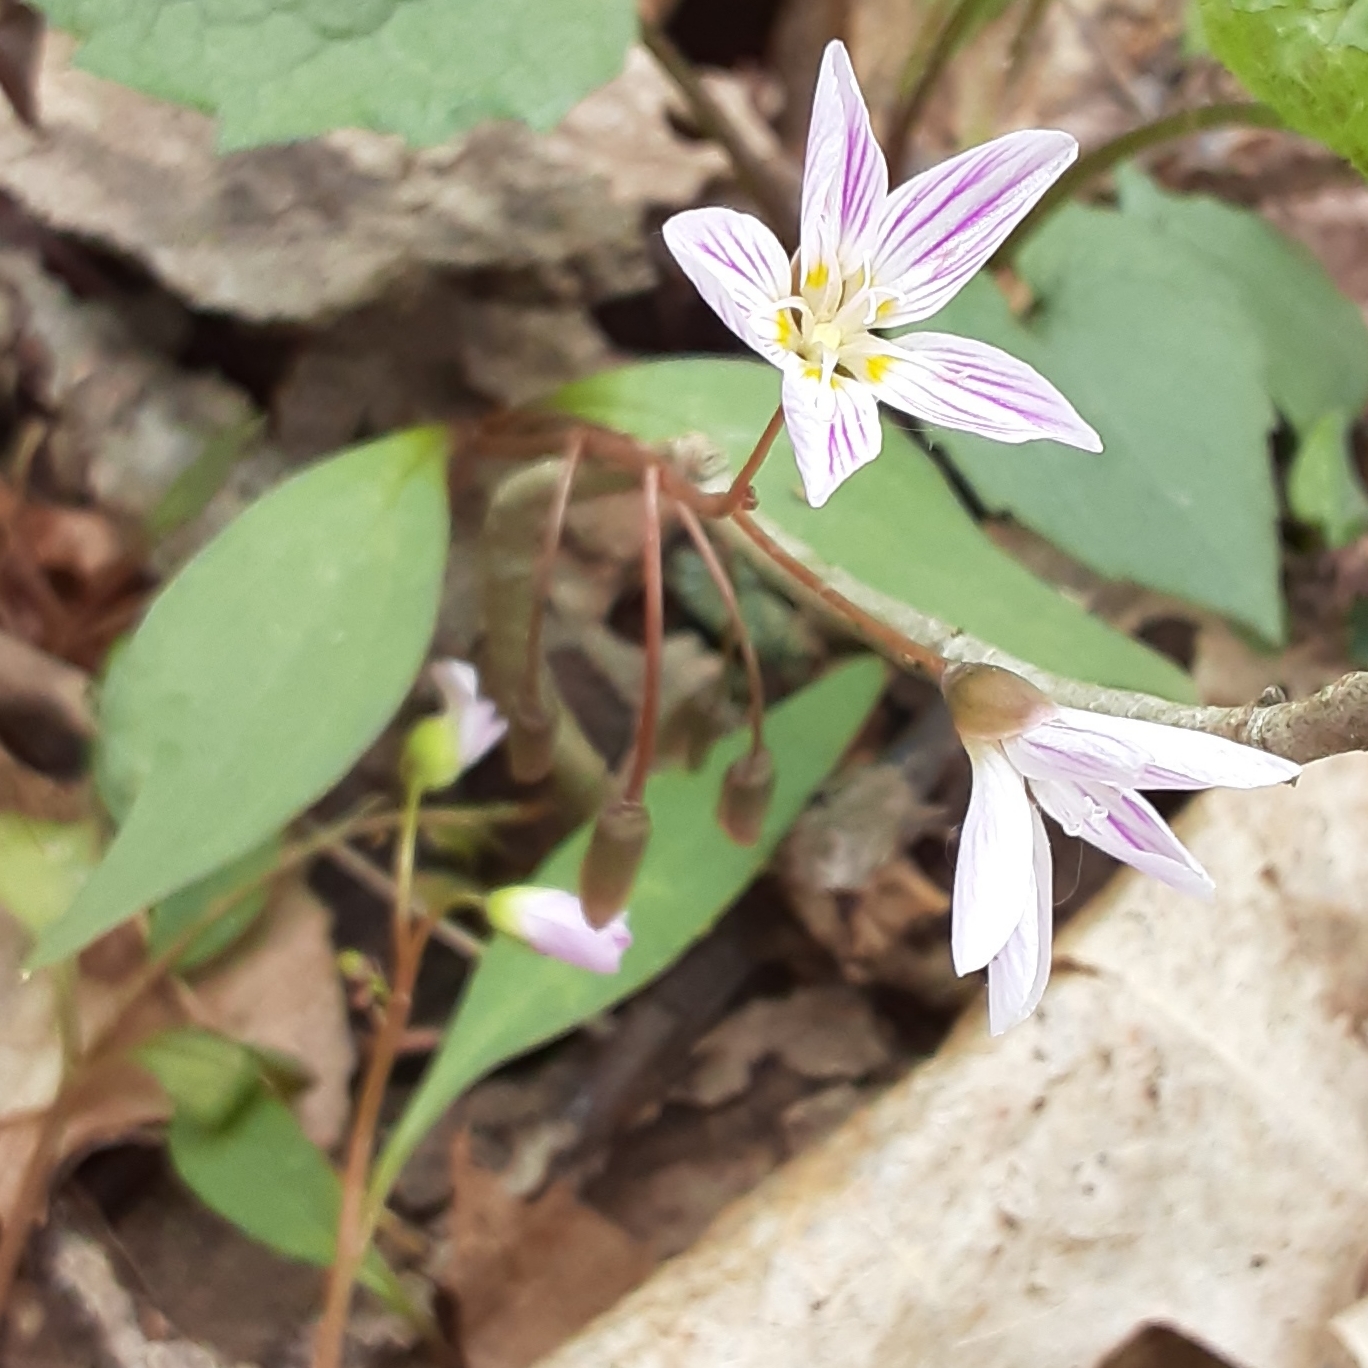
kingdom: Plantae
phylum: Tracheophyta
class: Magnoliopsida
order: Caryophyllales
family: Montiaceae
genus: Claytonia
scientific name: Claytonia caroliniana
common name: Carolina spring beauty
